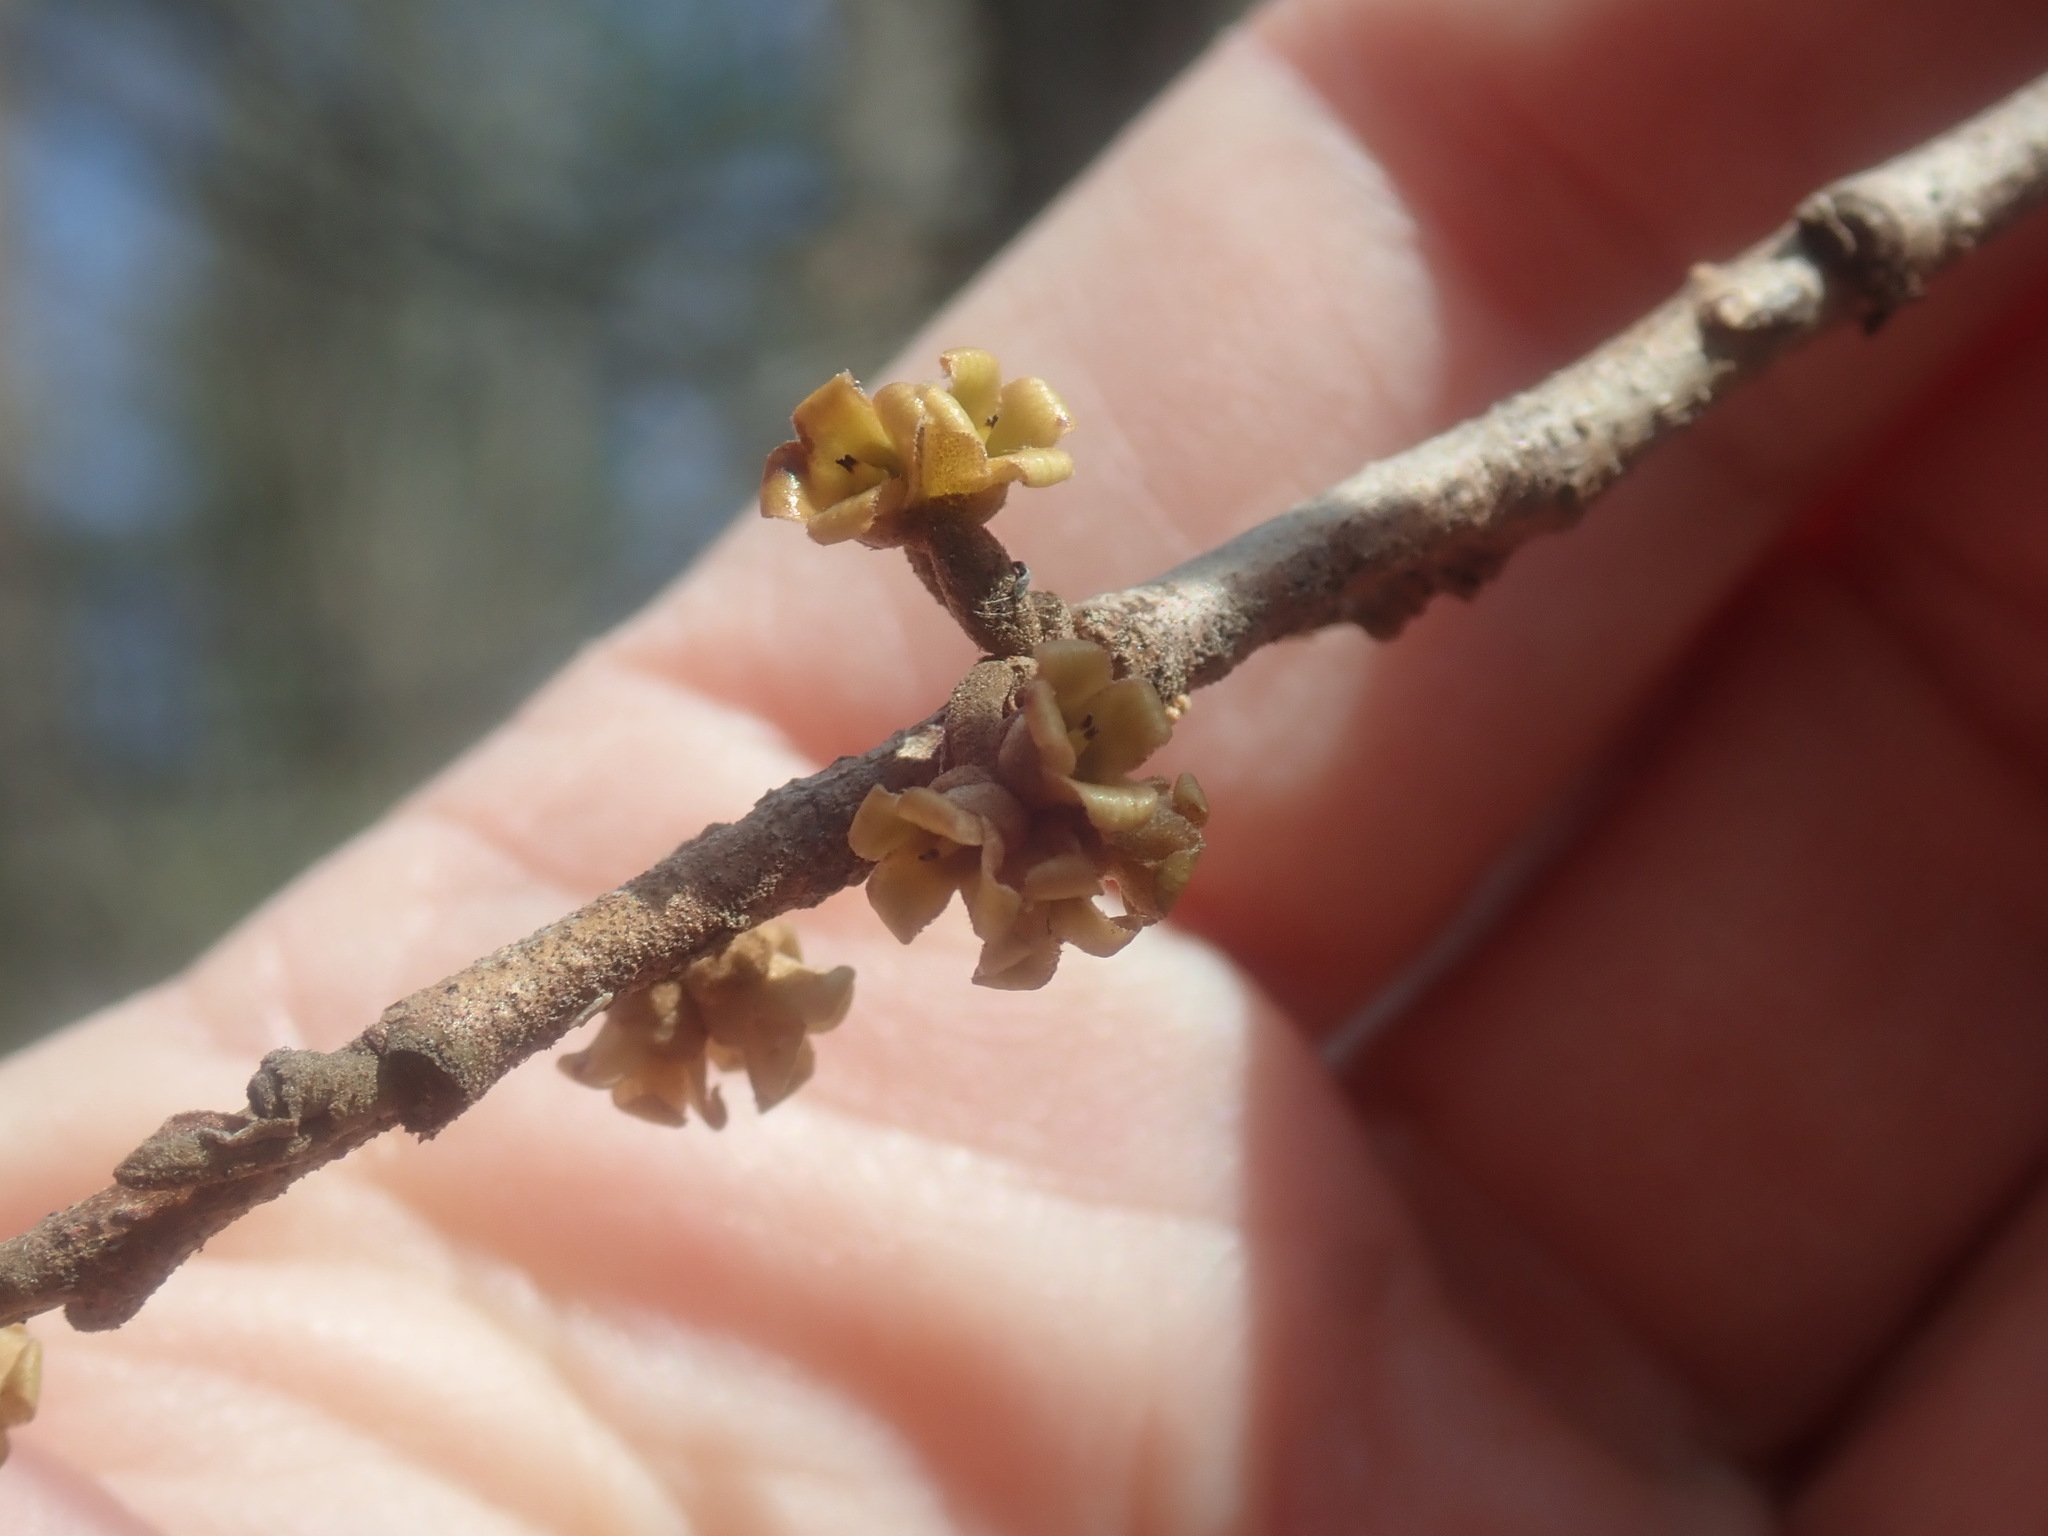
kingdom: Plantae
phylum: Tracheophyta
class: Magnoliopsida
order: Saxifragales
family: Hamamelidaceae
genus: Hamamelis
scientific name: Hamamelis virginiana
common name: Witch-hazel
